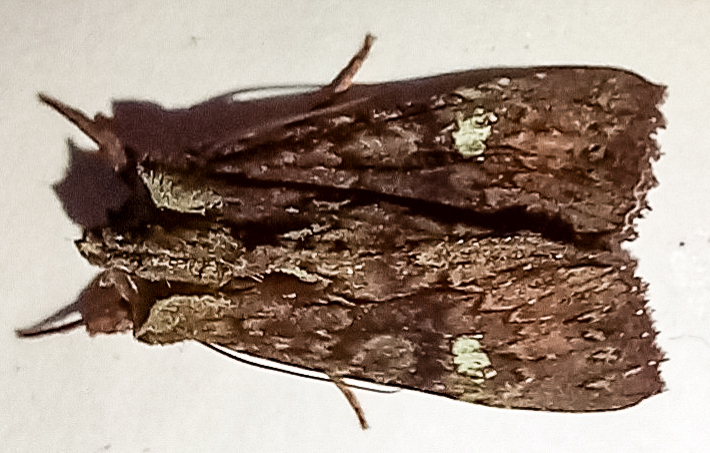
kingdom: Animalia
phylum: Arthropoda
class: Insecta
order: Lepidoptera
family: Noctuidae
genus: Meterana
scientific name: Meterana diatmeta
